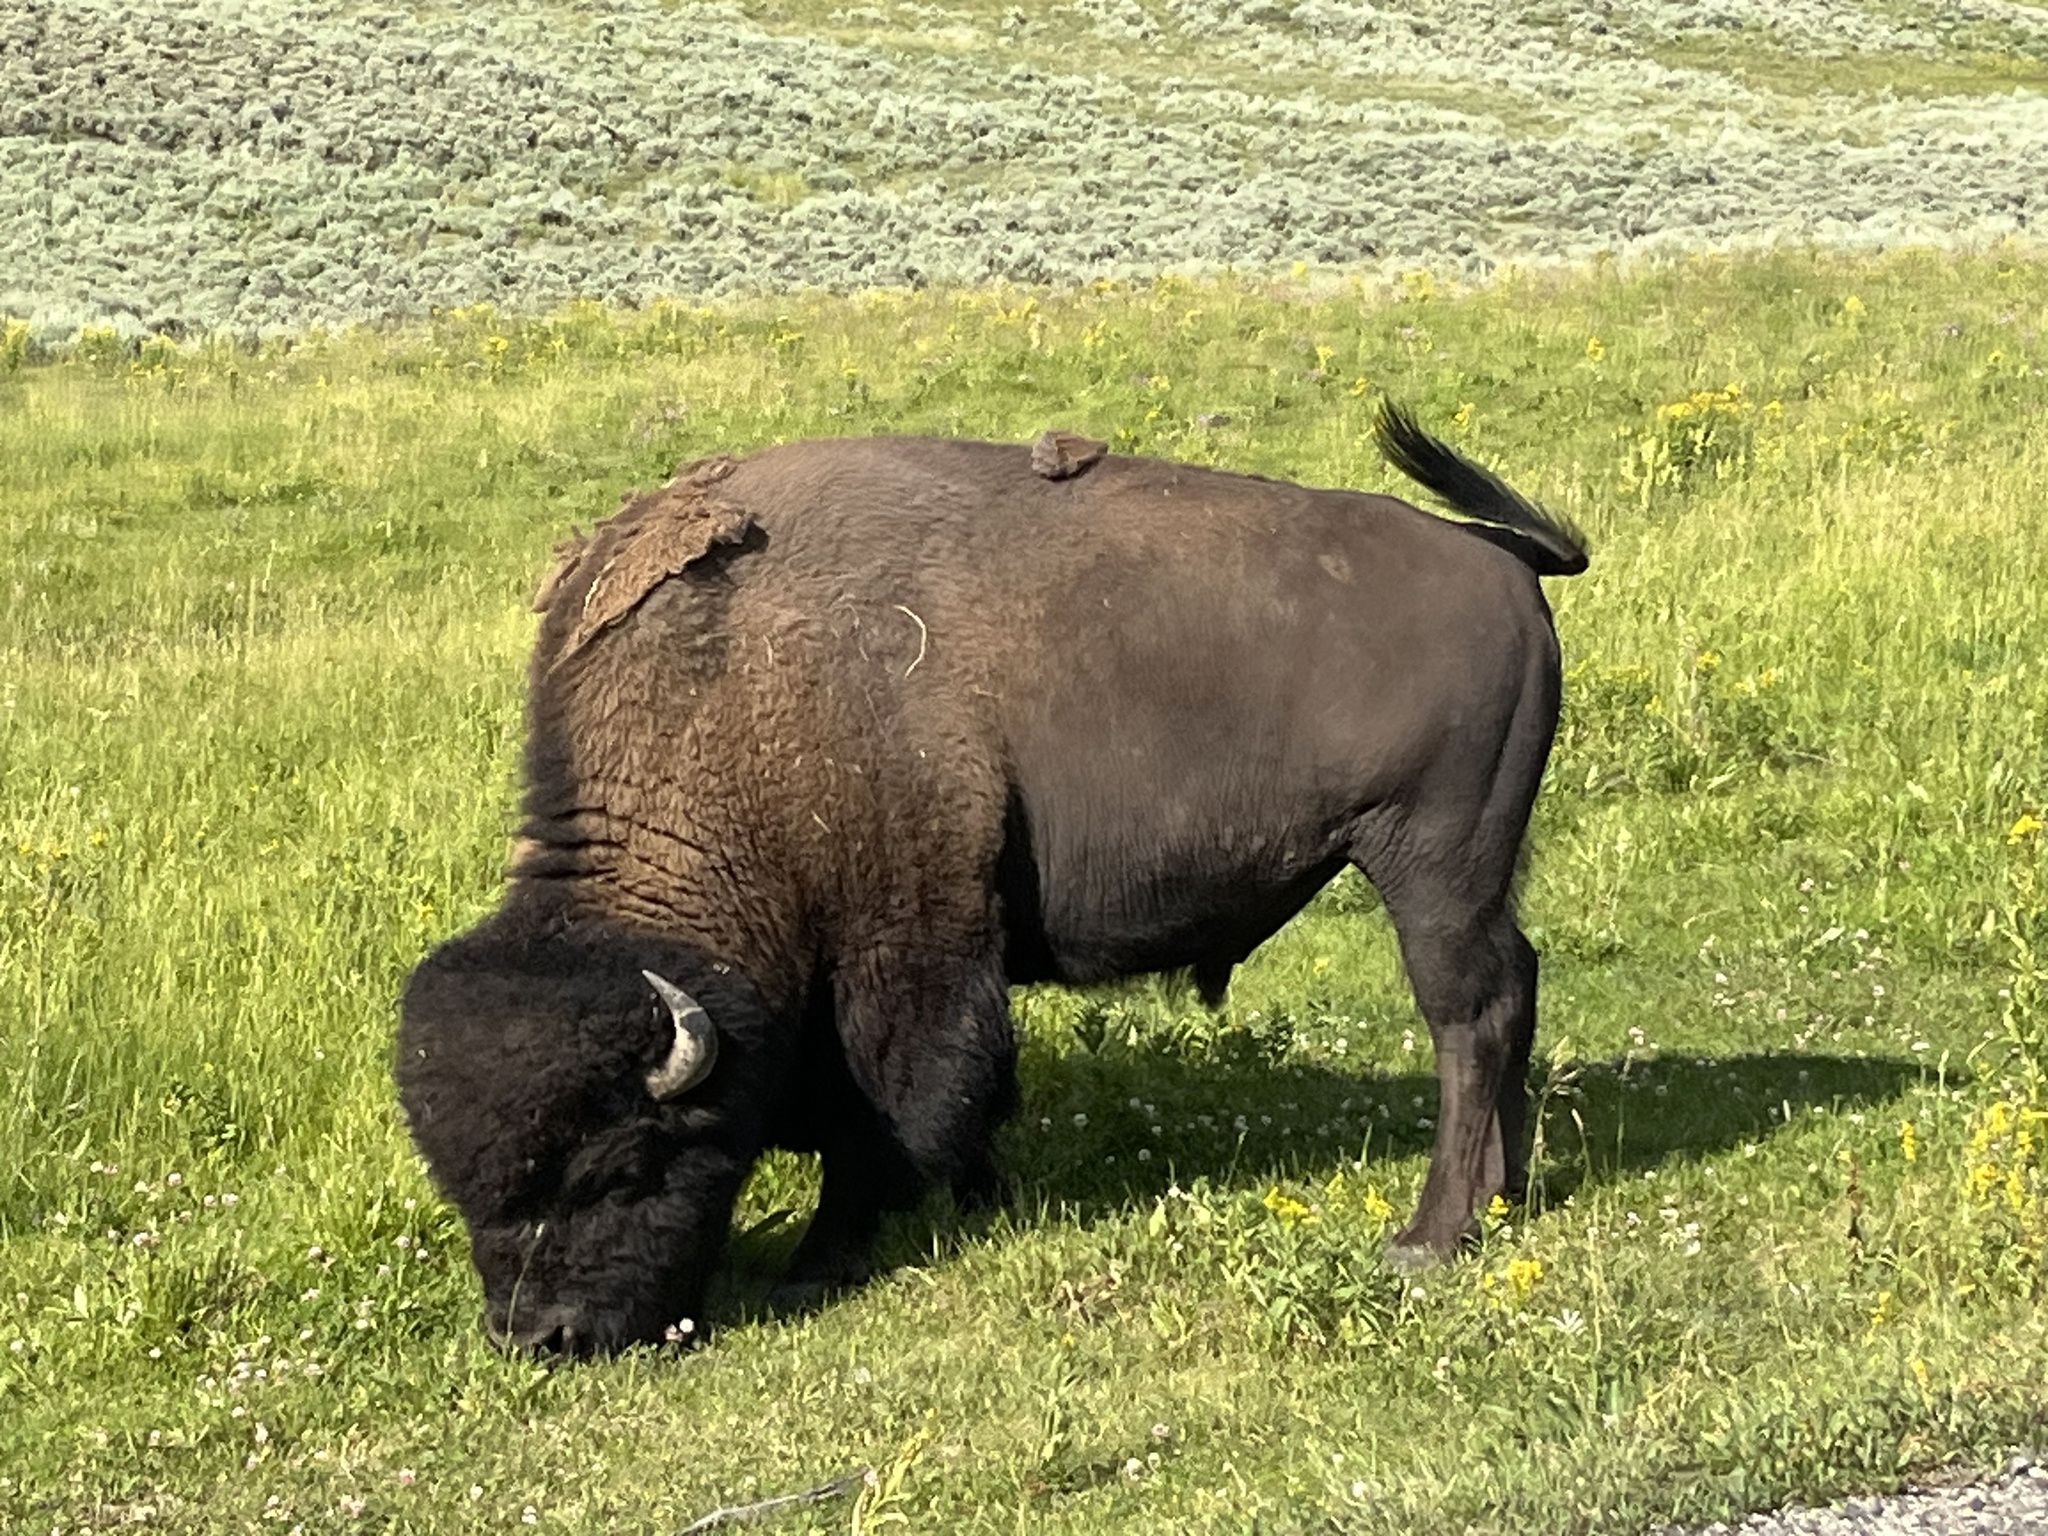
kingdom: Animalia
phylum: Chordata
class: Mammalia
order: Artiodactyla
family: Bovidae
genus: Bison
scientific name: Bison bison
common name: American bison
